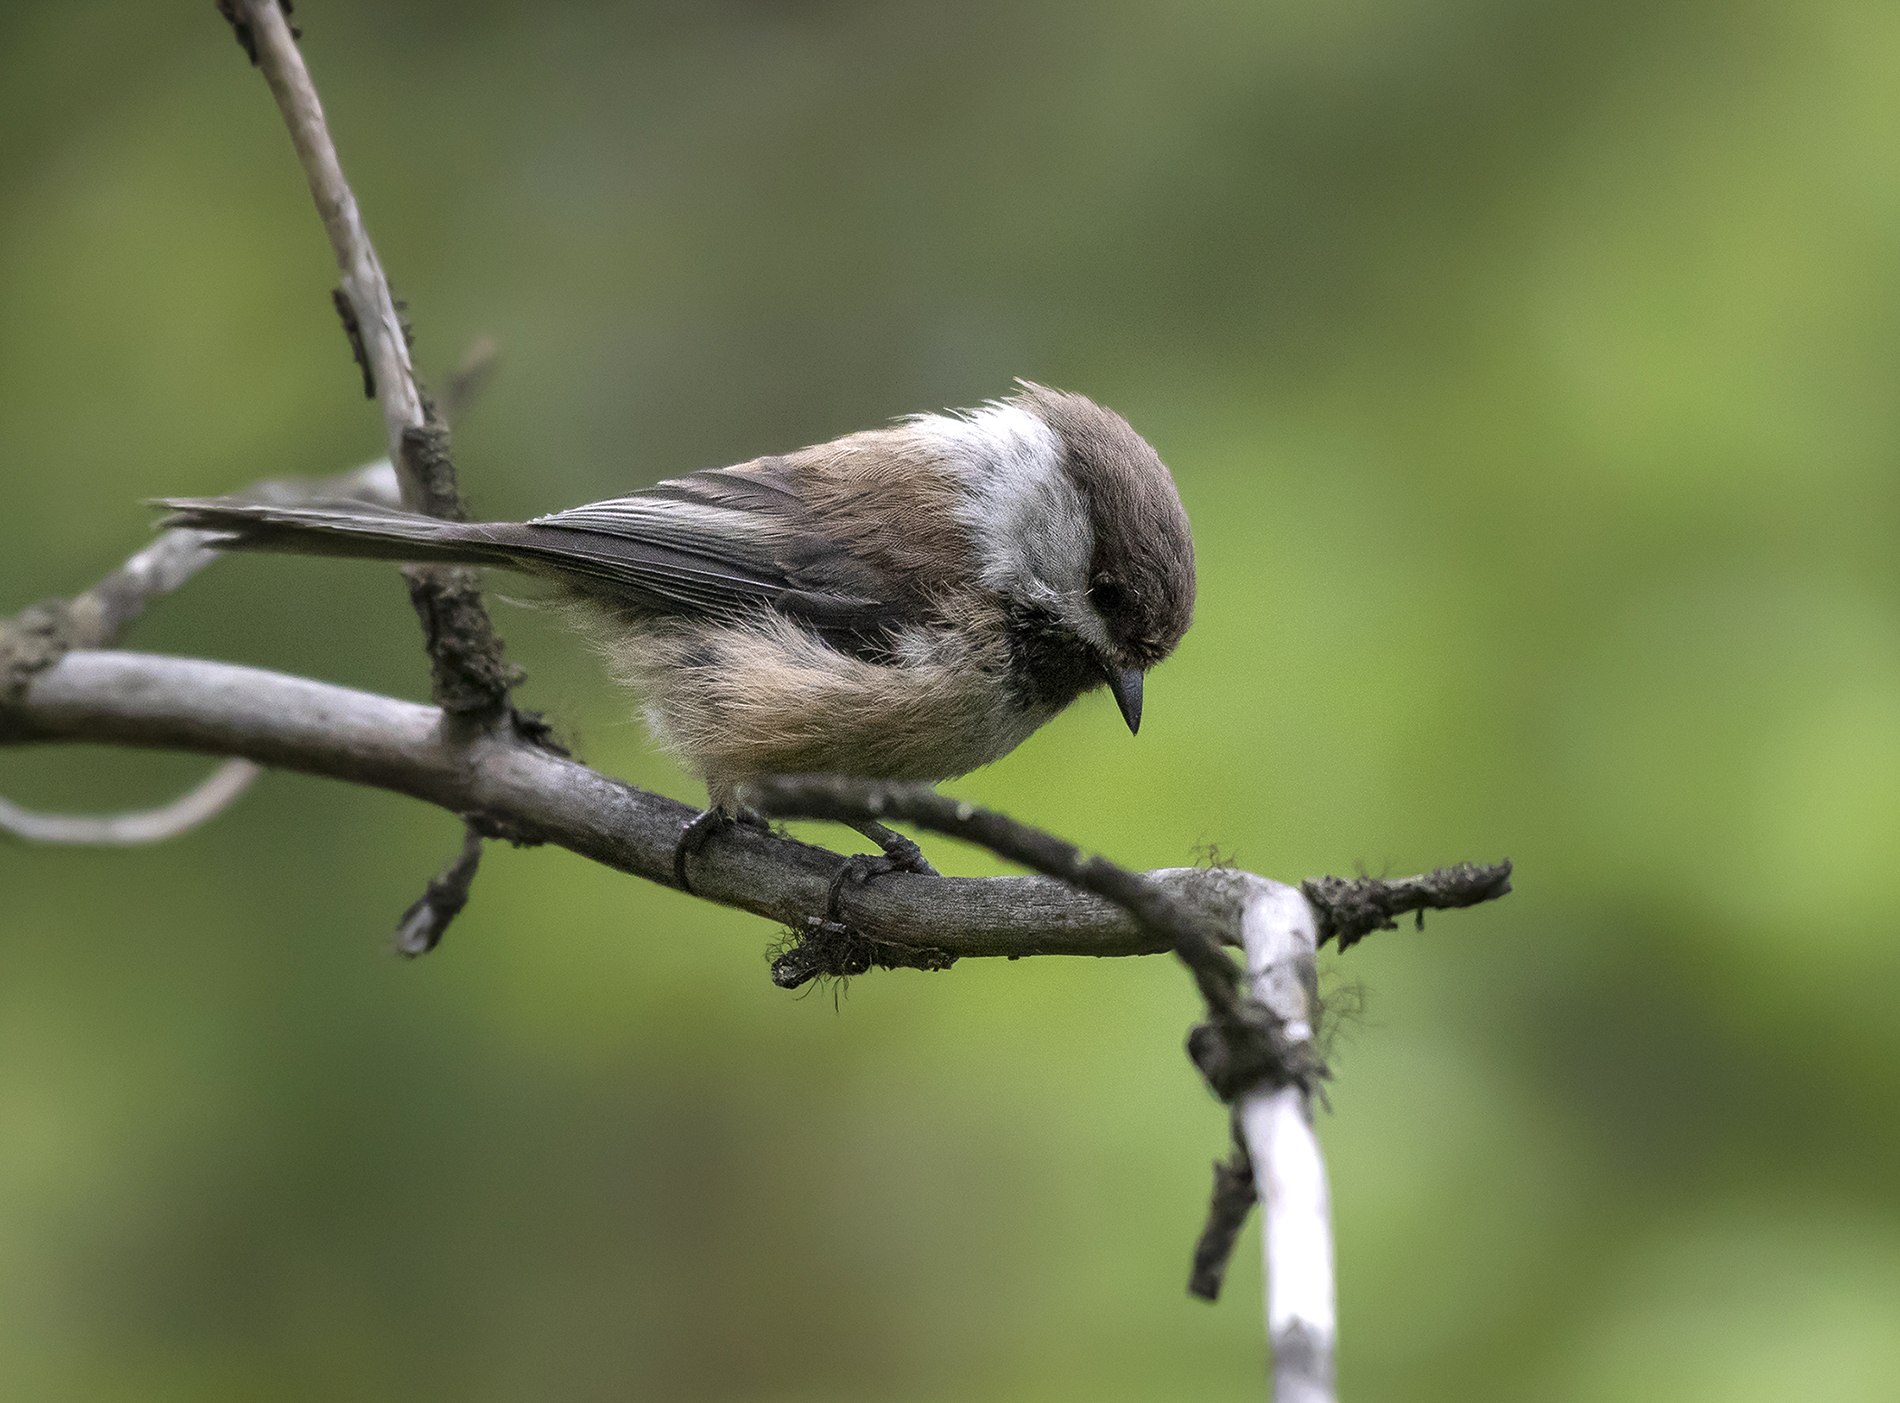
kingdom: Animalia
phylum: Chordata
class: Aves
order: Passeriformes
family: Paridae
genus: Poecile
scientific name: Poecile cinctus
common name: Gray-headed chickadee
